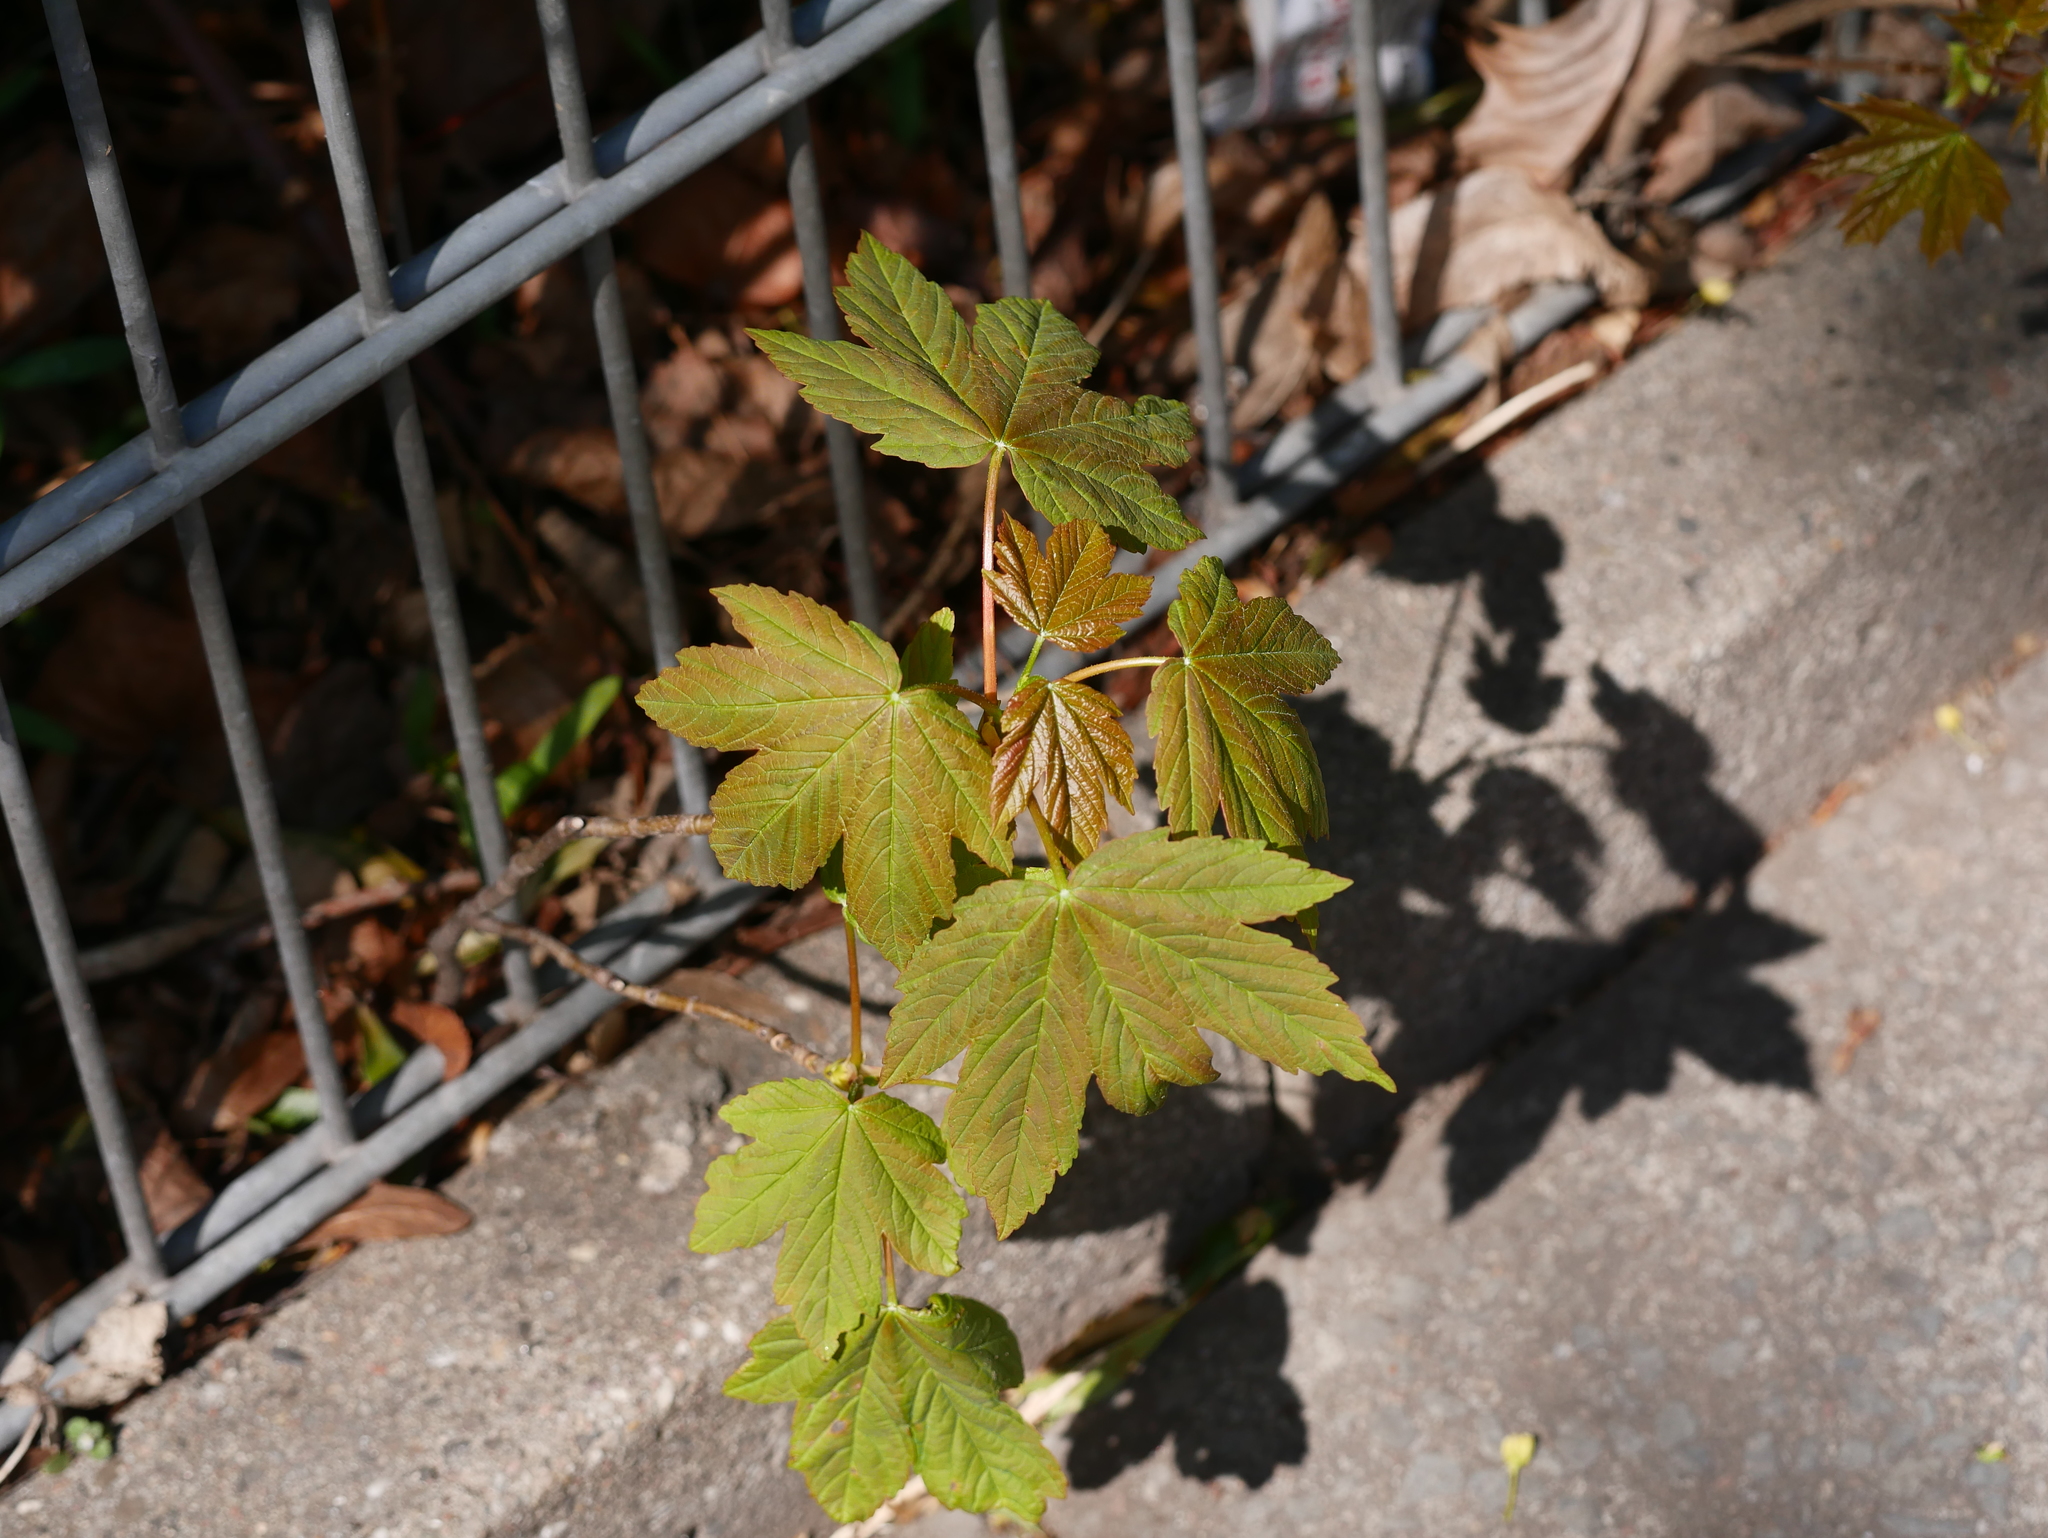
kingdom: Plantae
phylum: Tracheophyta
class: Magnoliopsida
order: Sapindales
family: Sapindaceae
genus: Acer
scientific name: Acer pseudoplatanus
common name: Sycamore
